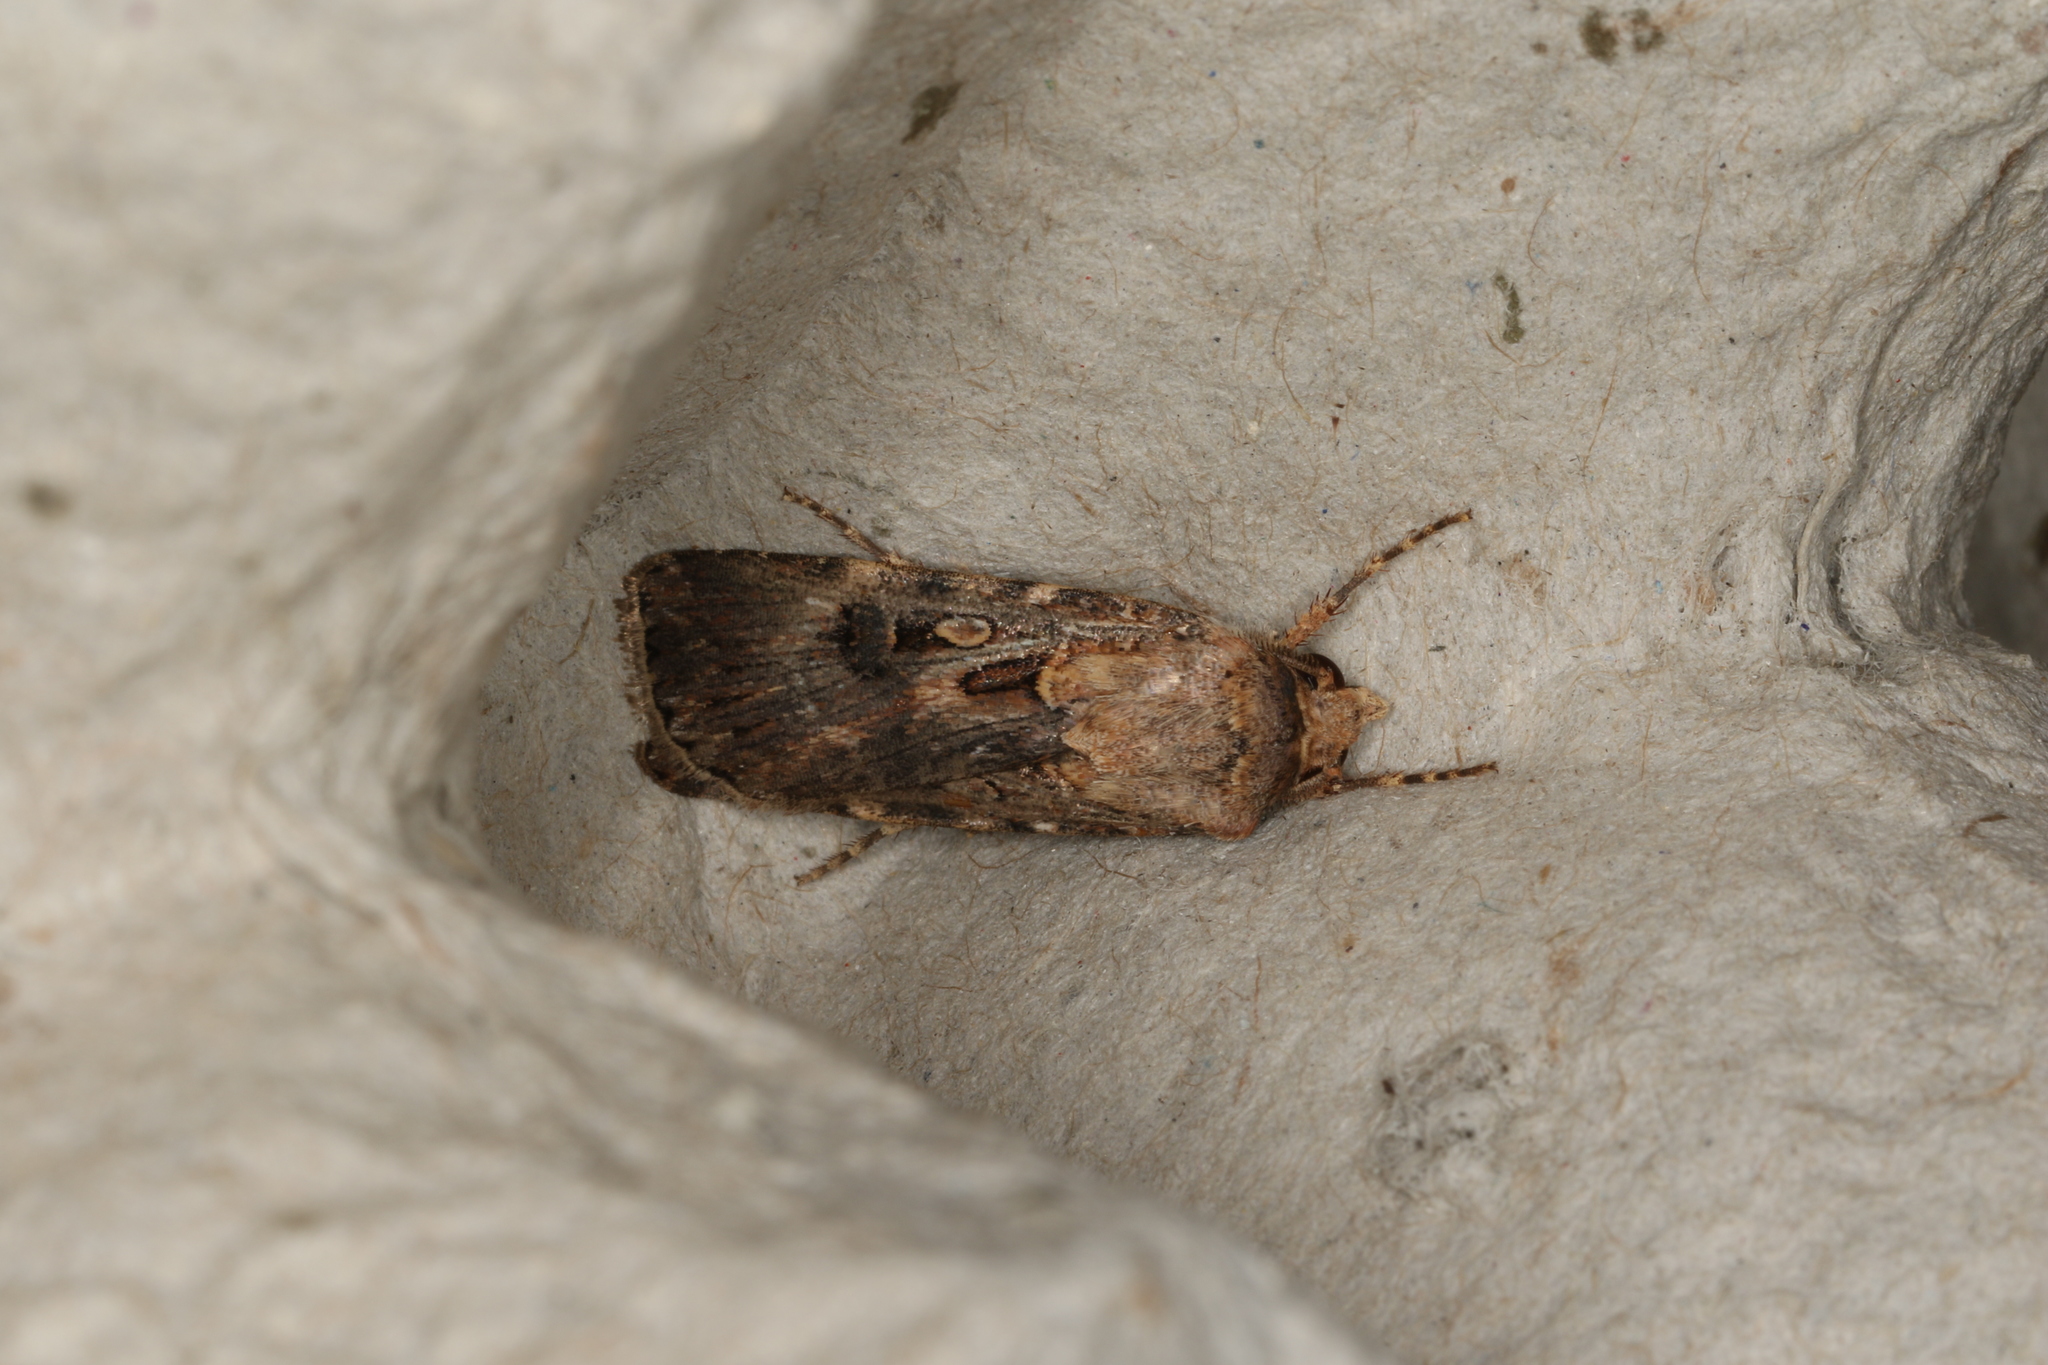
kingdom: Animalia
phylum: Arthropoda
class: Insecta
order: Lepidoptera
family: Noctuidae
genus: Agrotis
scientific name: Agrotis munda
